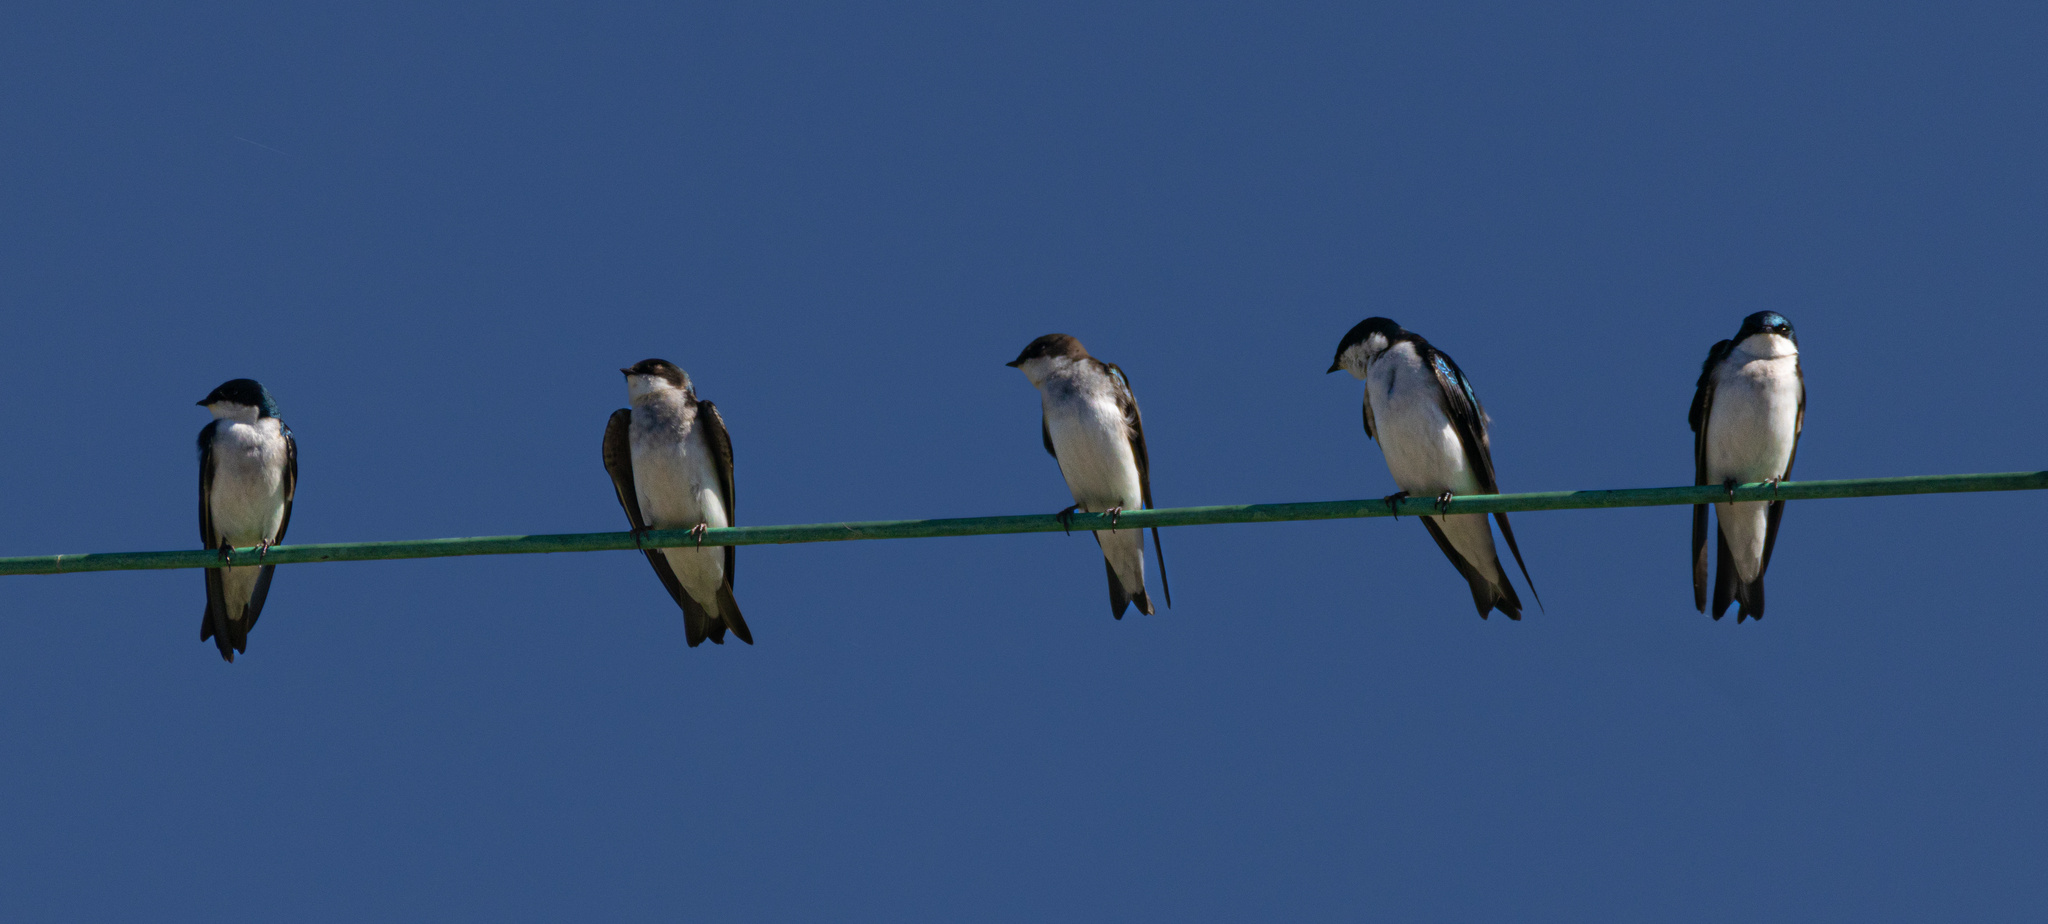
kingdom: Animalia
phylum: Chordata
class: Aves
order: Passeriformes
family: Hirundinidae
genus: Tachycineta
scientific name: Tachycineta bicolor
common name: Tree swallow
